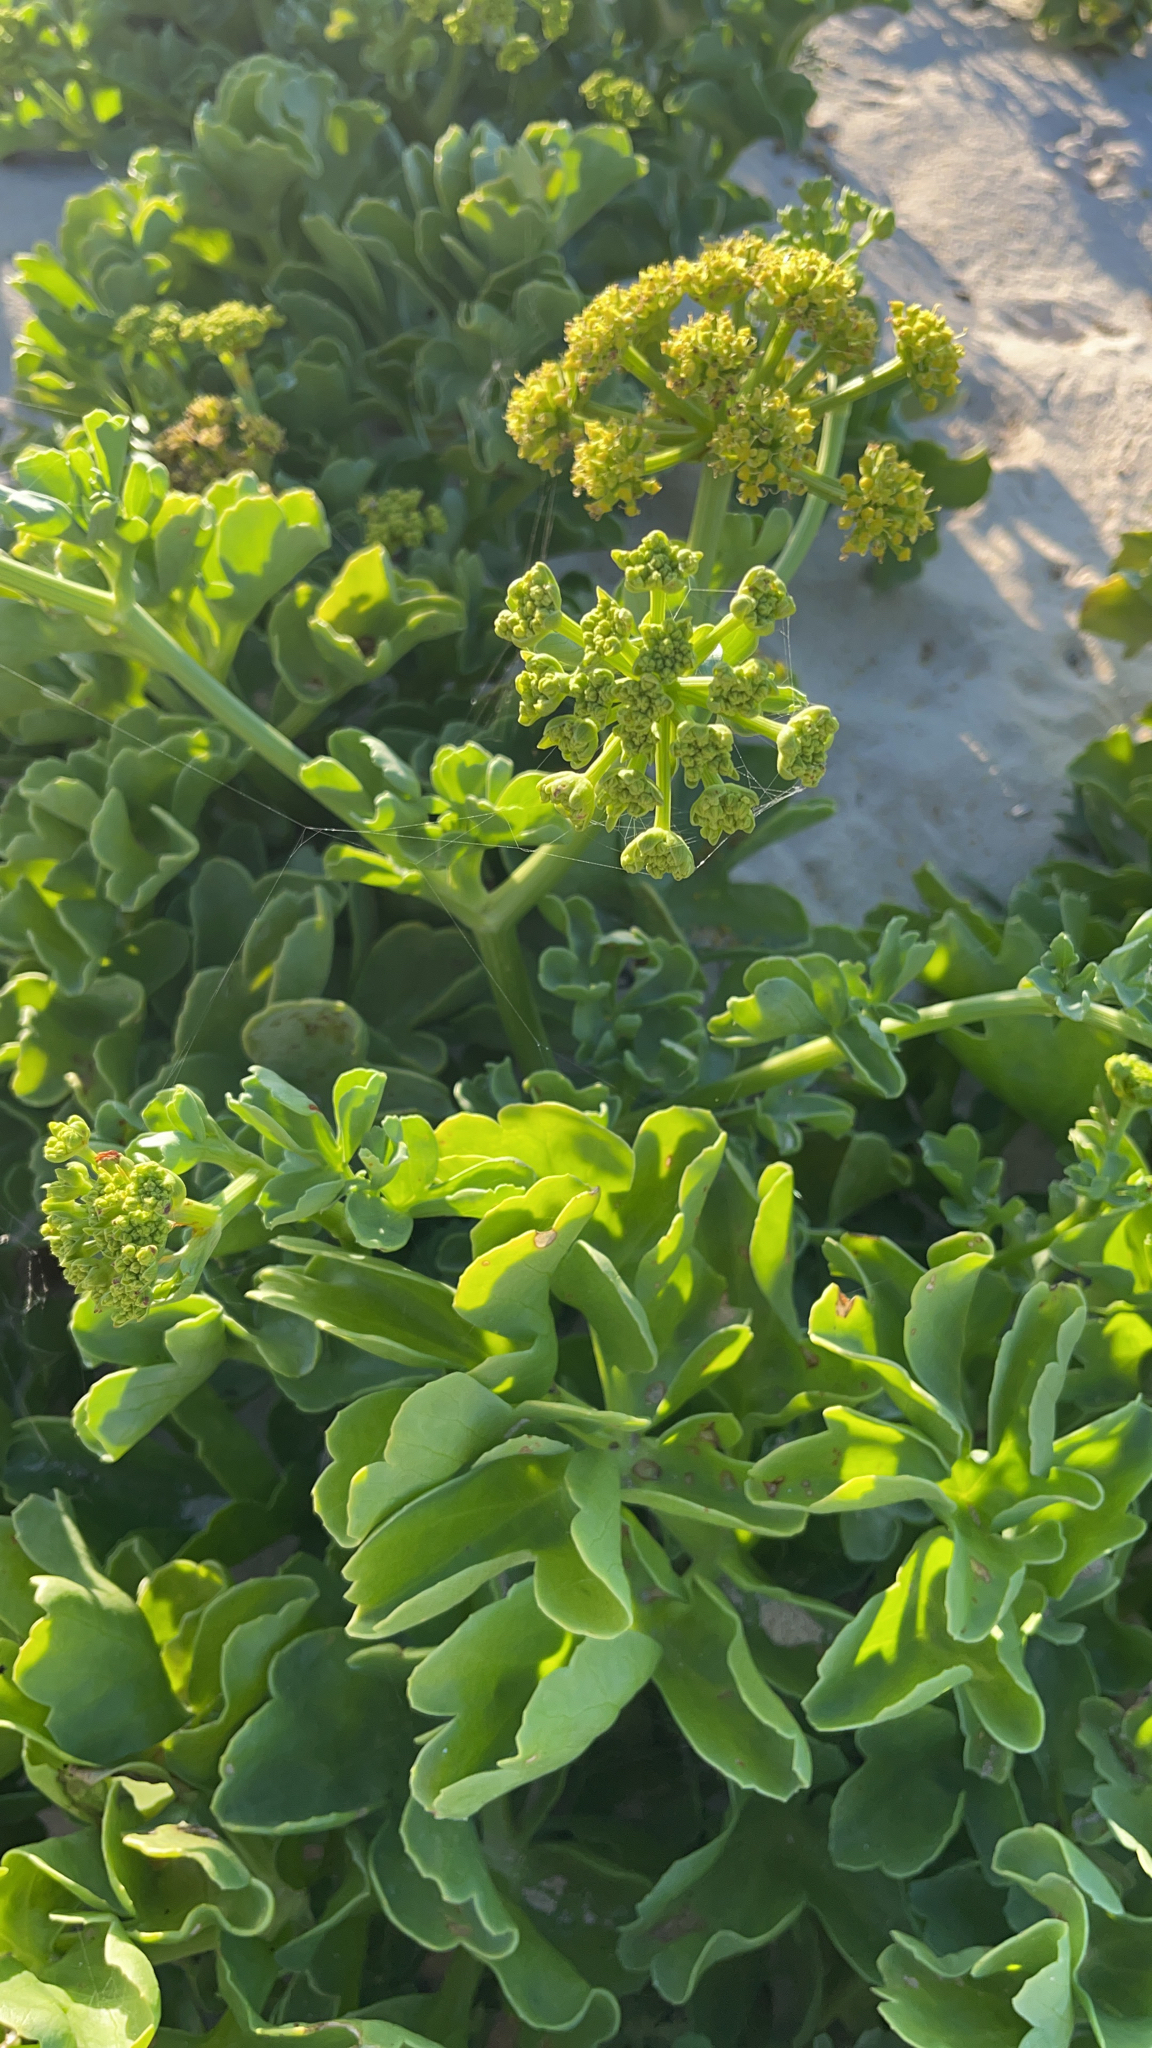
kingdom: Plantae
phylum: Tracheophyta
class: Magnoliopsida
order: Apiales
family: Apiaceae
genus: Astydamia
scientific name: Astydamia latifolia
